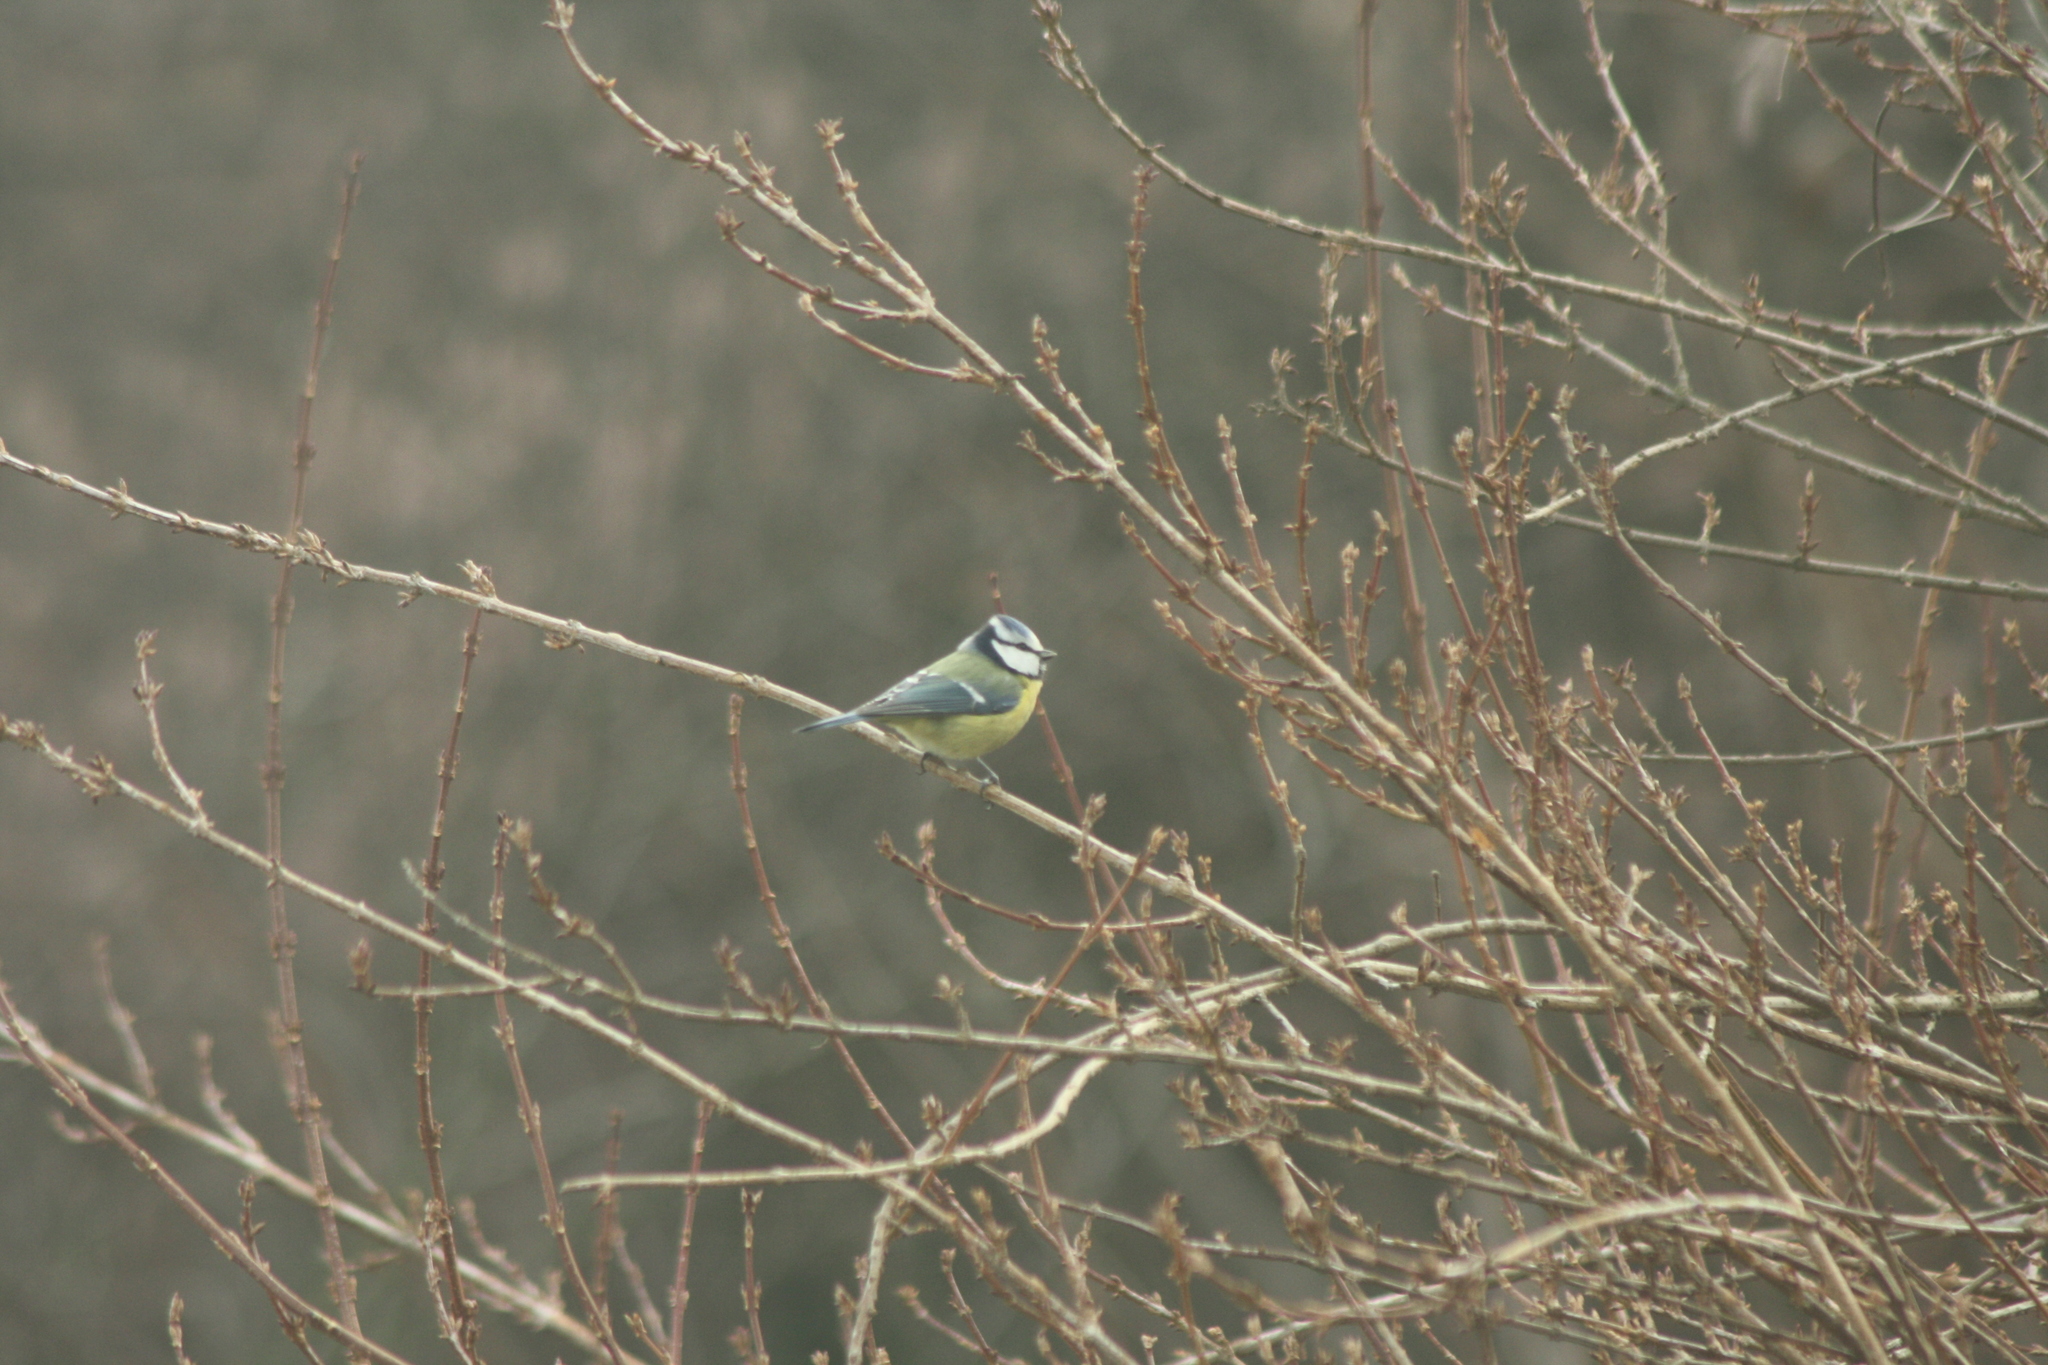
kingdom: Animalia
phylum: Chordata
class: Aves
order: Passeriformes
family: Paridae
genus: Cyanistes
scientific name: Cyanistes caeruleus
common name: Eurasian blue tit
